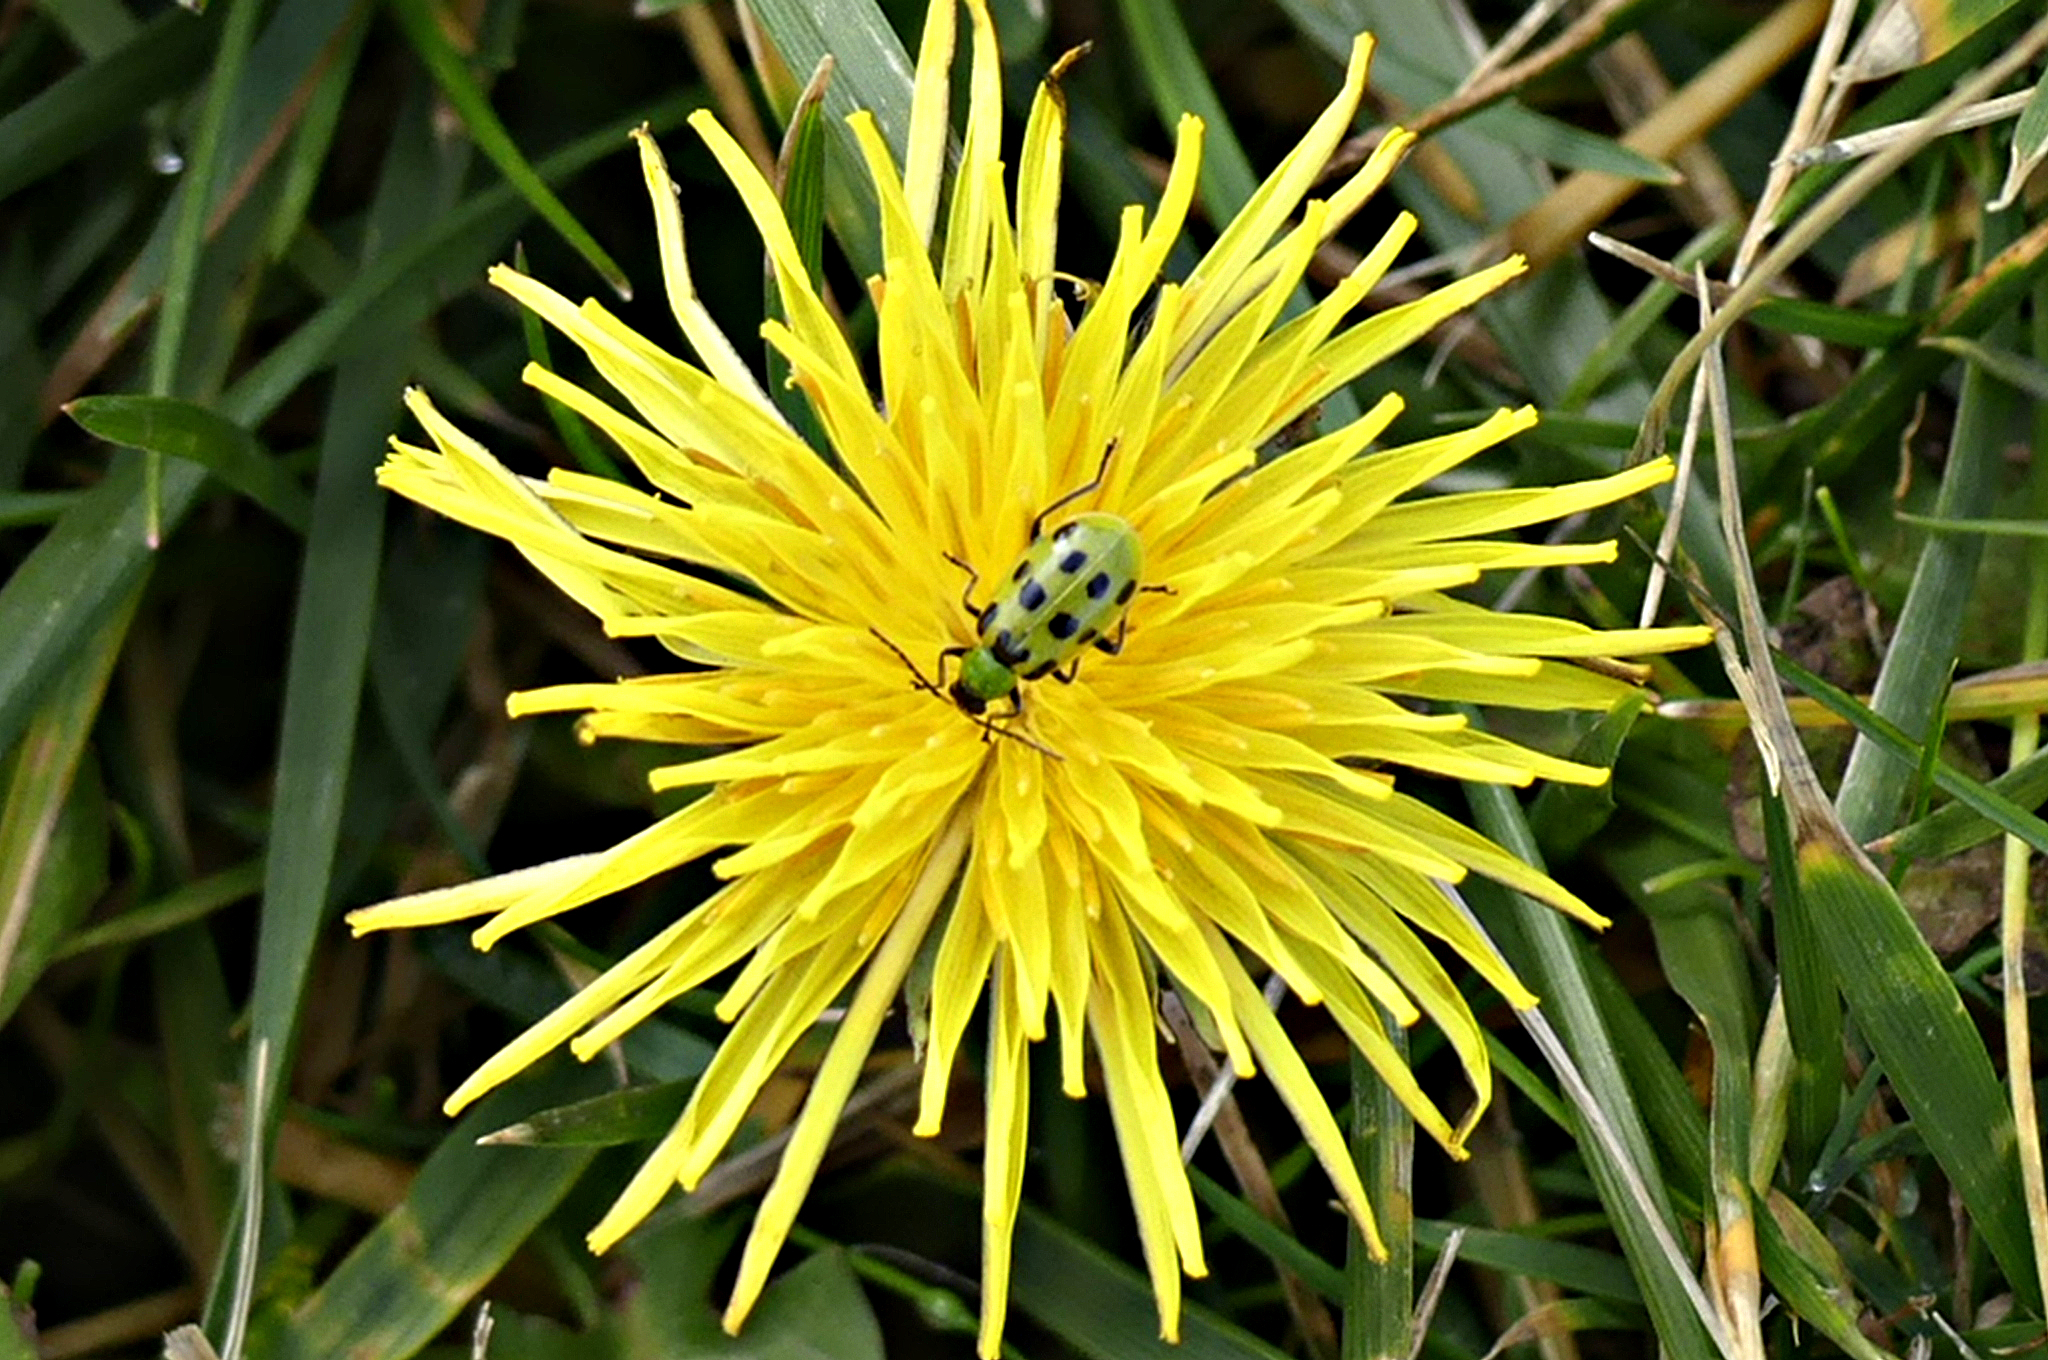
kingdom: Animalia
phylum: Arthropoda
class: Insecta
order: Coleoptera
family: Chrysomelidae
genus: Diabrotica
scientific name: Diabrotica undecimpunctata
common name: Spotted cucumber beetle
